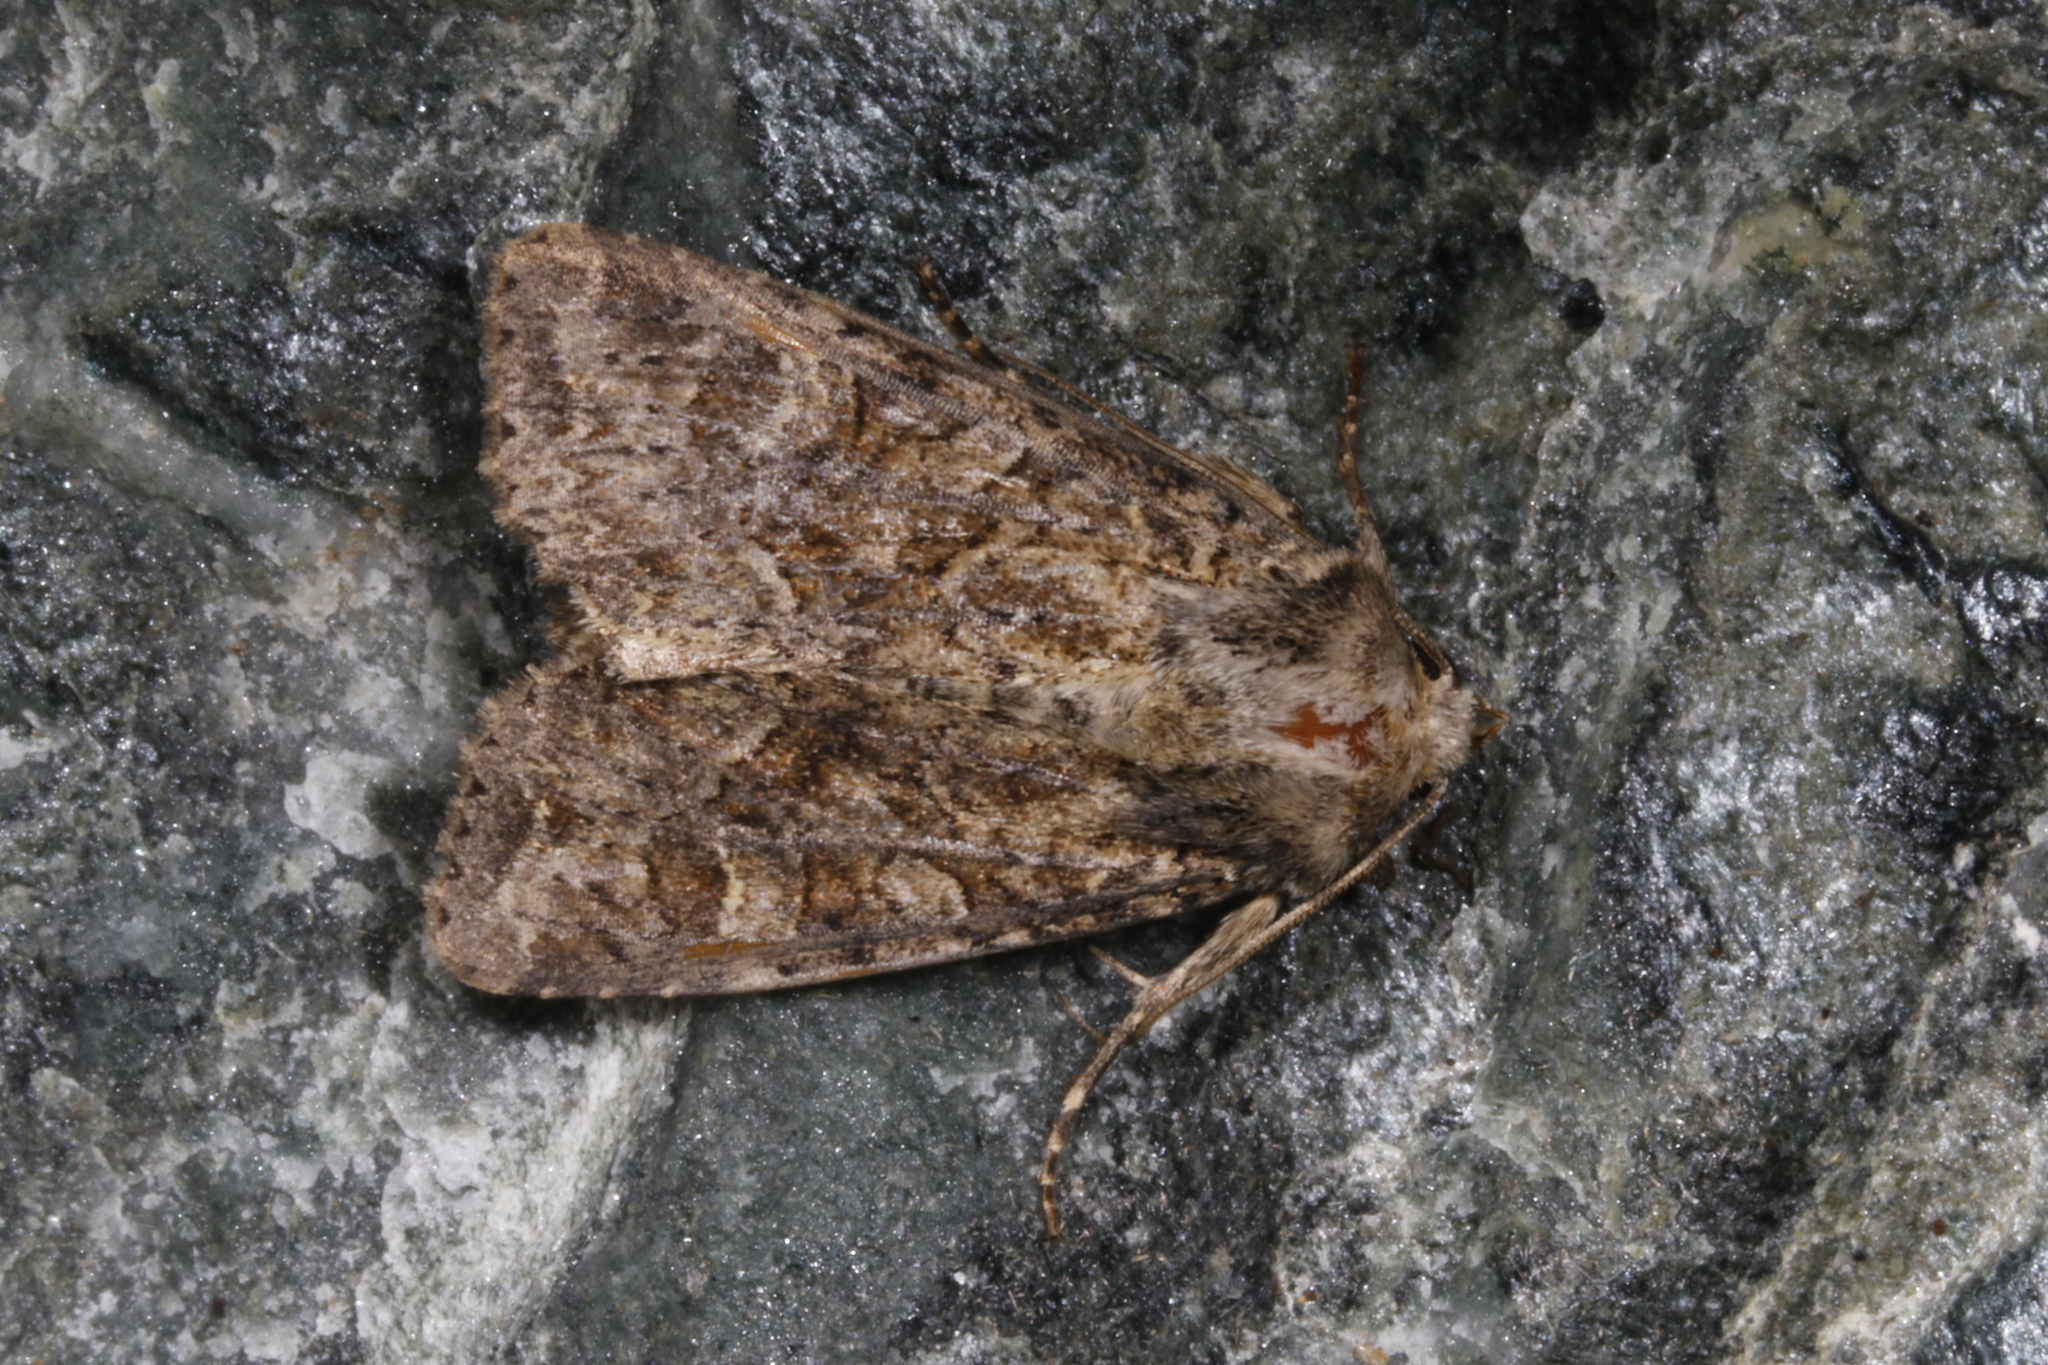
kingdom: Animalia
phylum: Arthropoda
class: Insecta
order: Lepidoptera
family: Noctuidae
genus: Apamea
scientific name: Apamea remissa
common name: Dusky brocade
